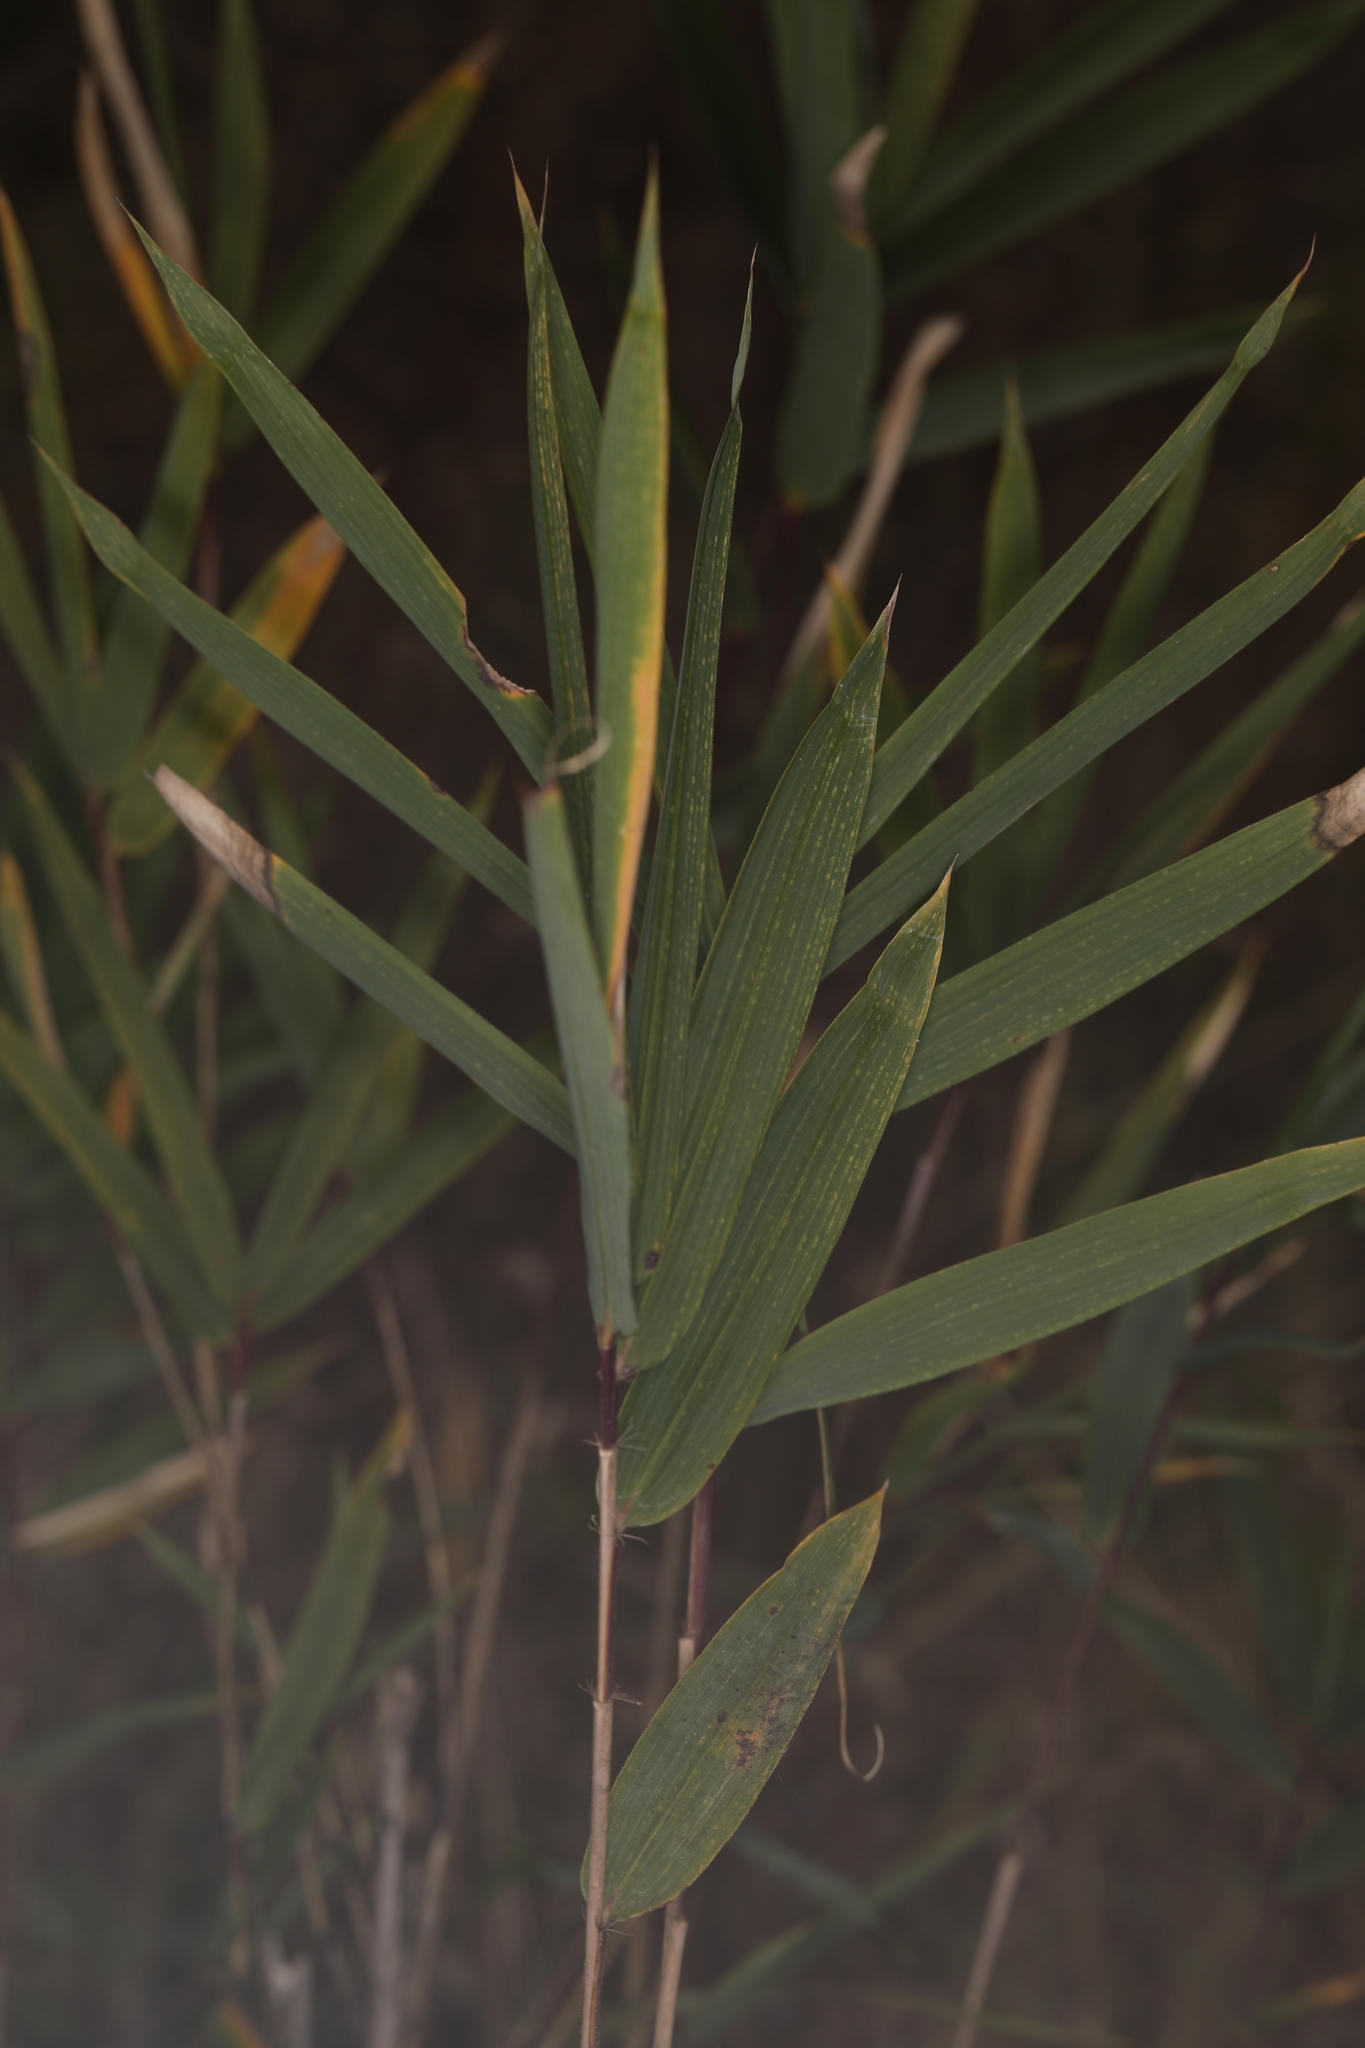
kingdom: Plantae
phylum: Tracheophyta
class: Liliopsida
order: Poales
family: Poaceae
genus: Arundinaria
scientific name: Arundinaria tecta
